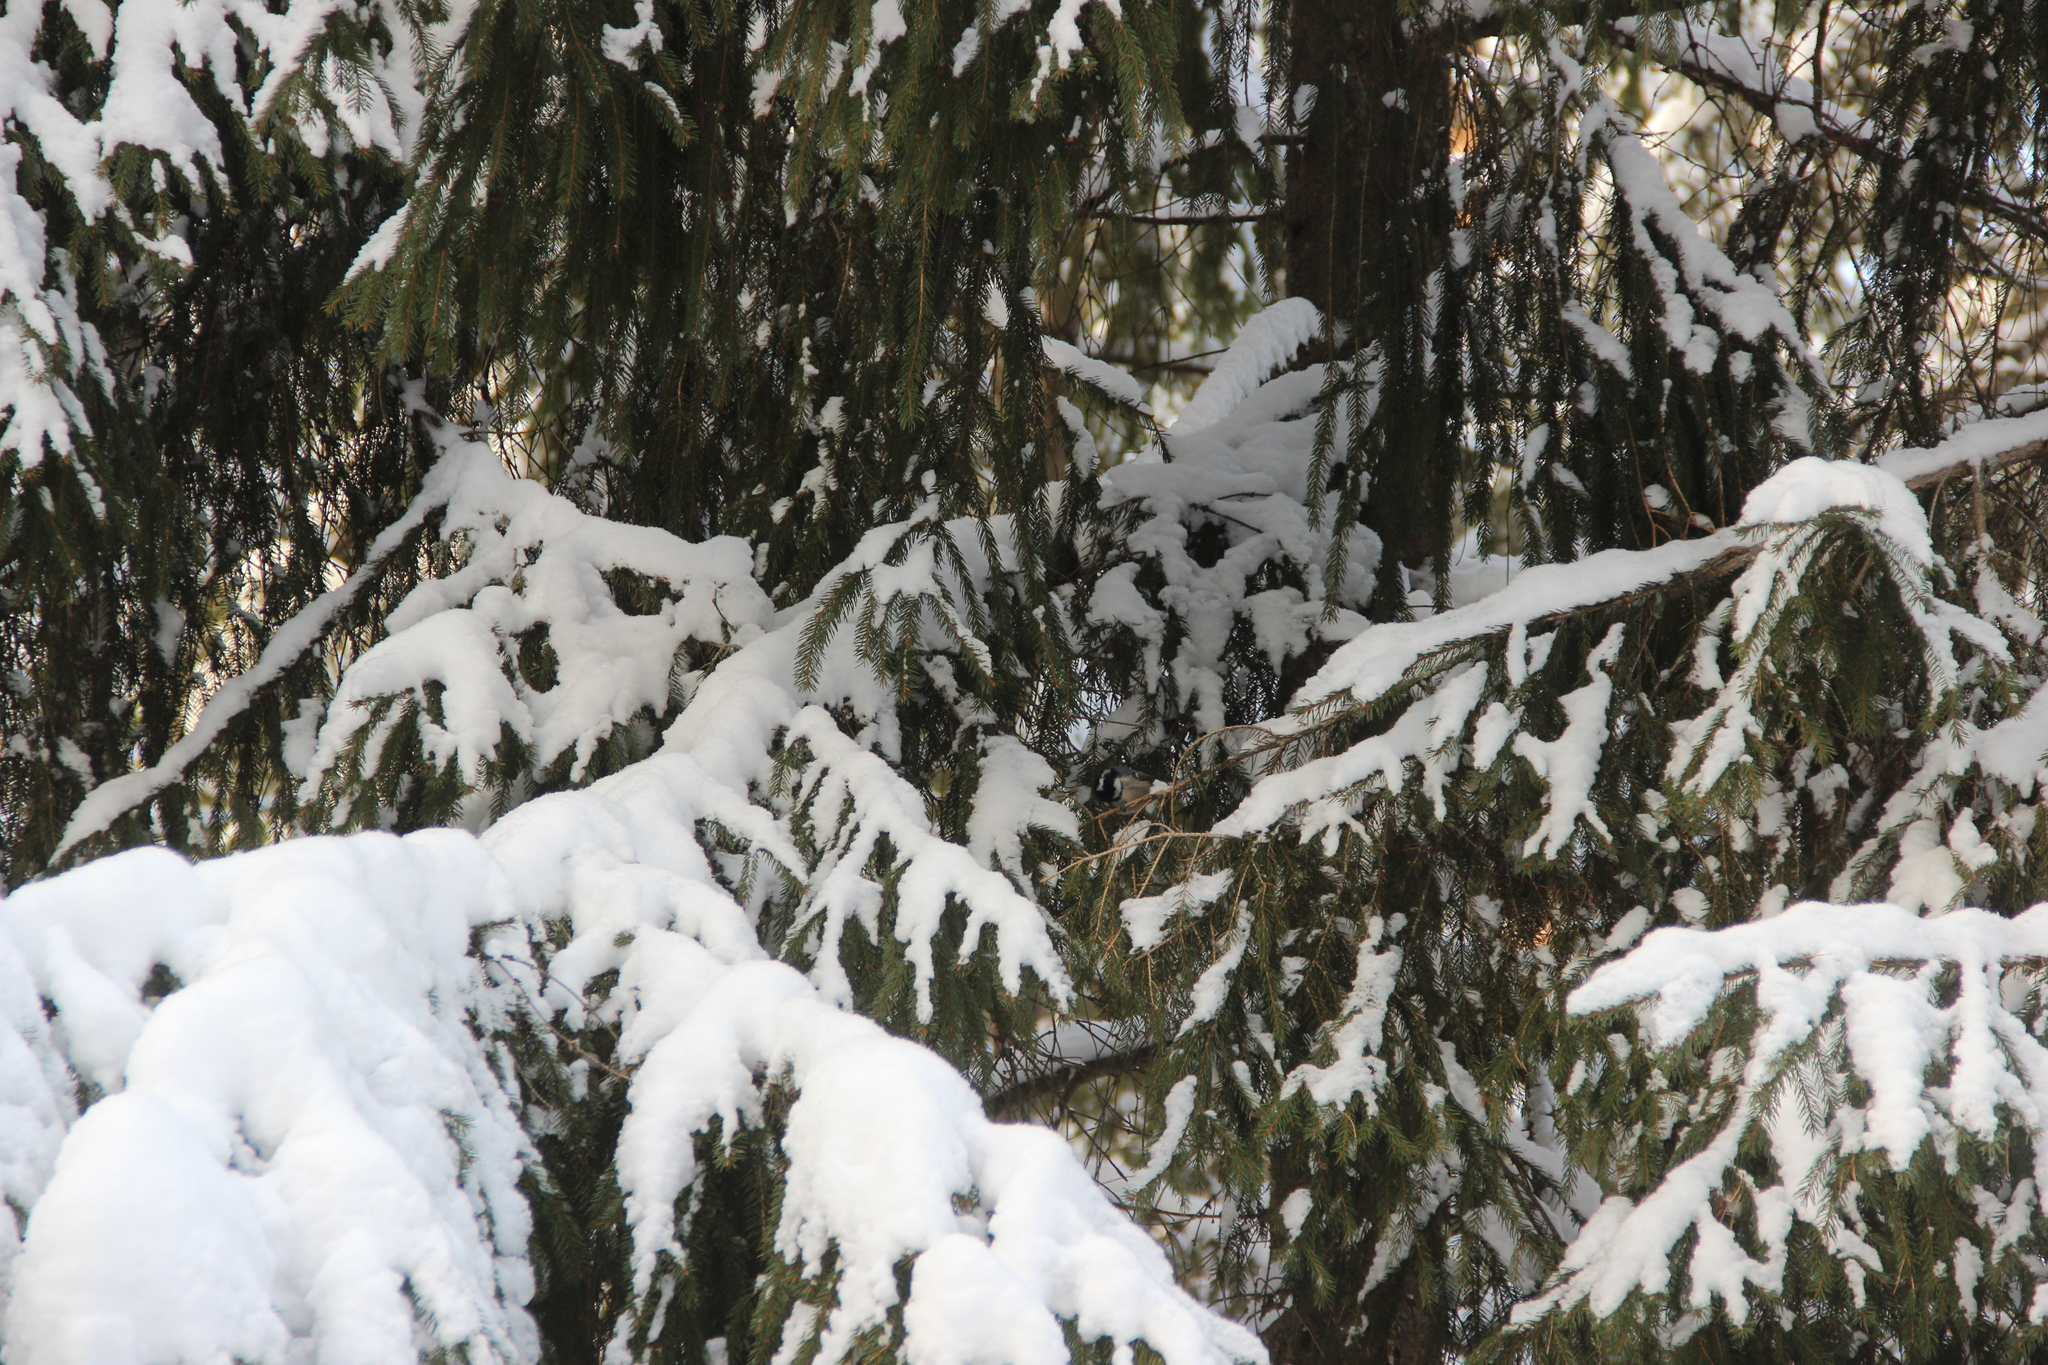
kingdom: Animalia
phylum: Chordata
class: Aves
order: Passeriformes
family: Paridae
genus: Periparus
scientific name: Periparus ater
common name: Coal tit
